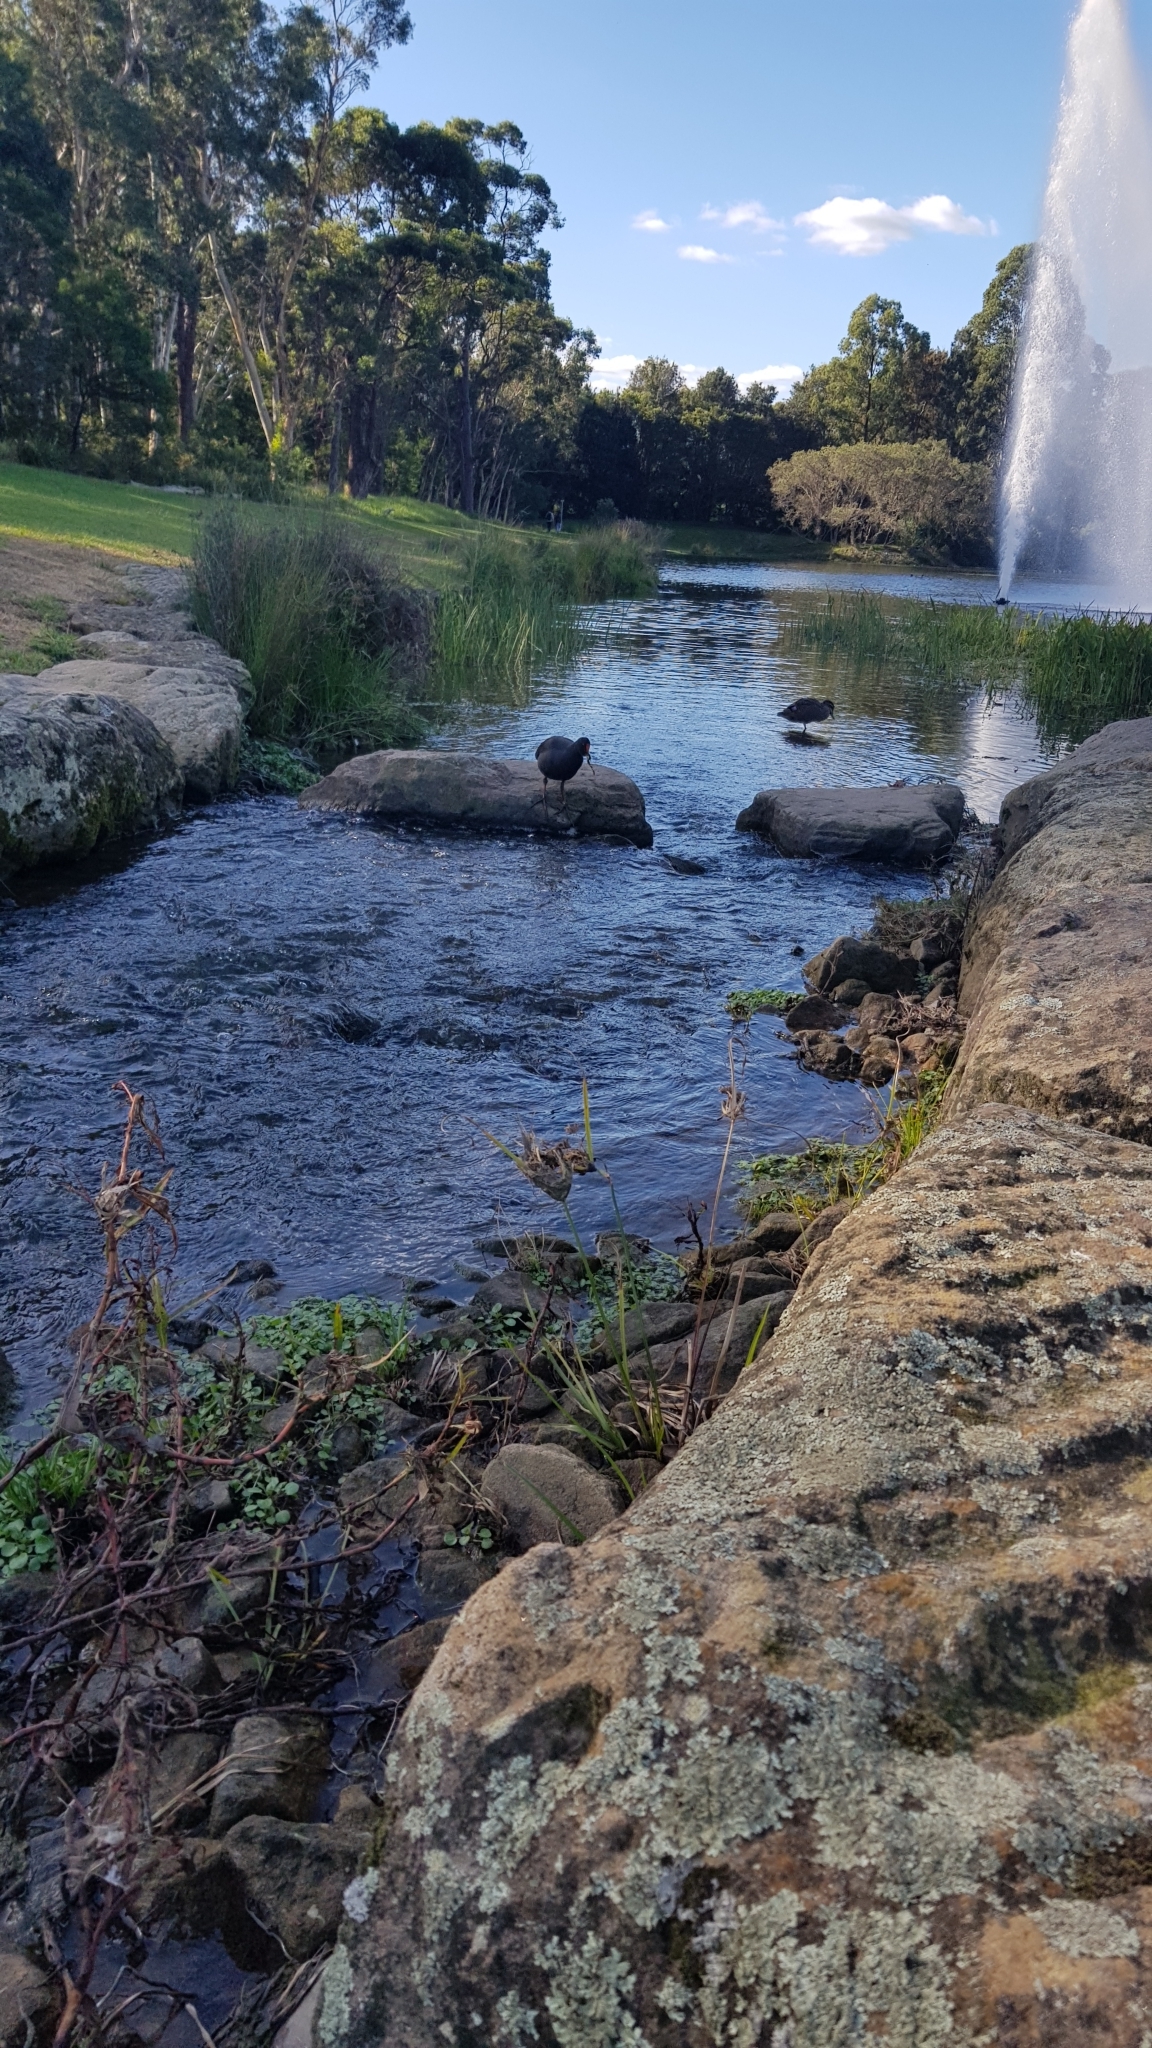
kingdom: Animalia
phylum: Chordata
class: Aves
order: Gruiformes
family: Rallidae
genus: Gallinula
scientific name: Gallinula tenebrosa
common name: Dusky moorhen
